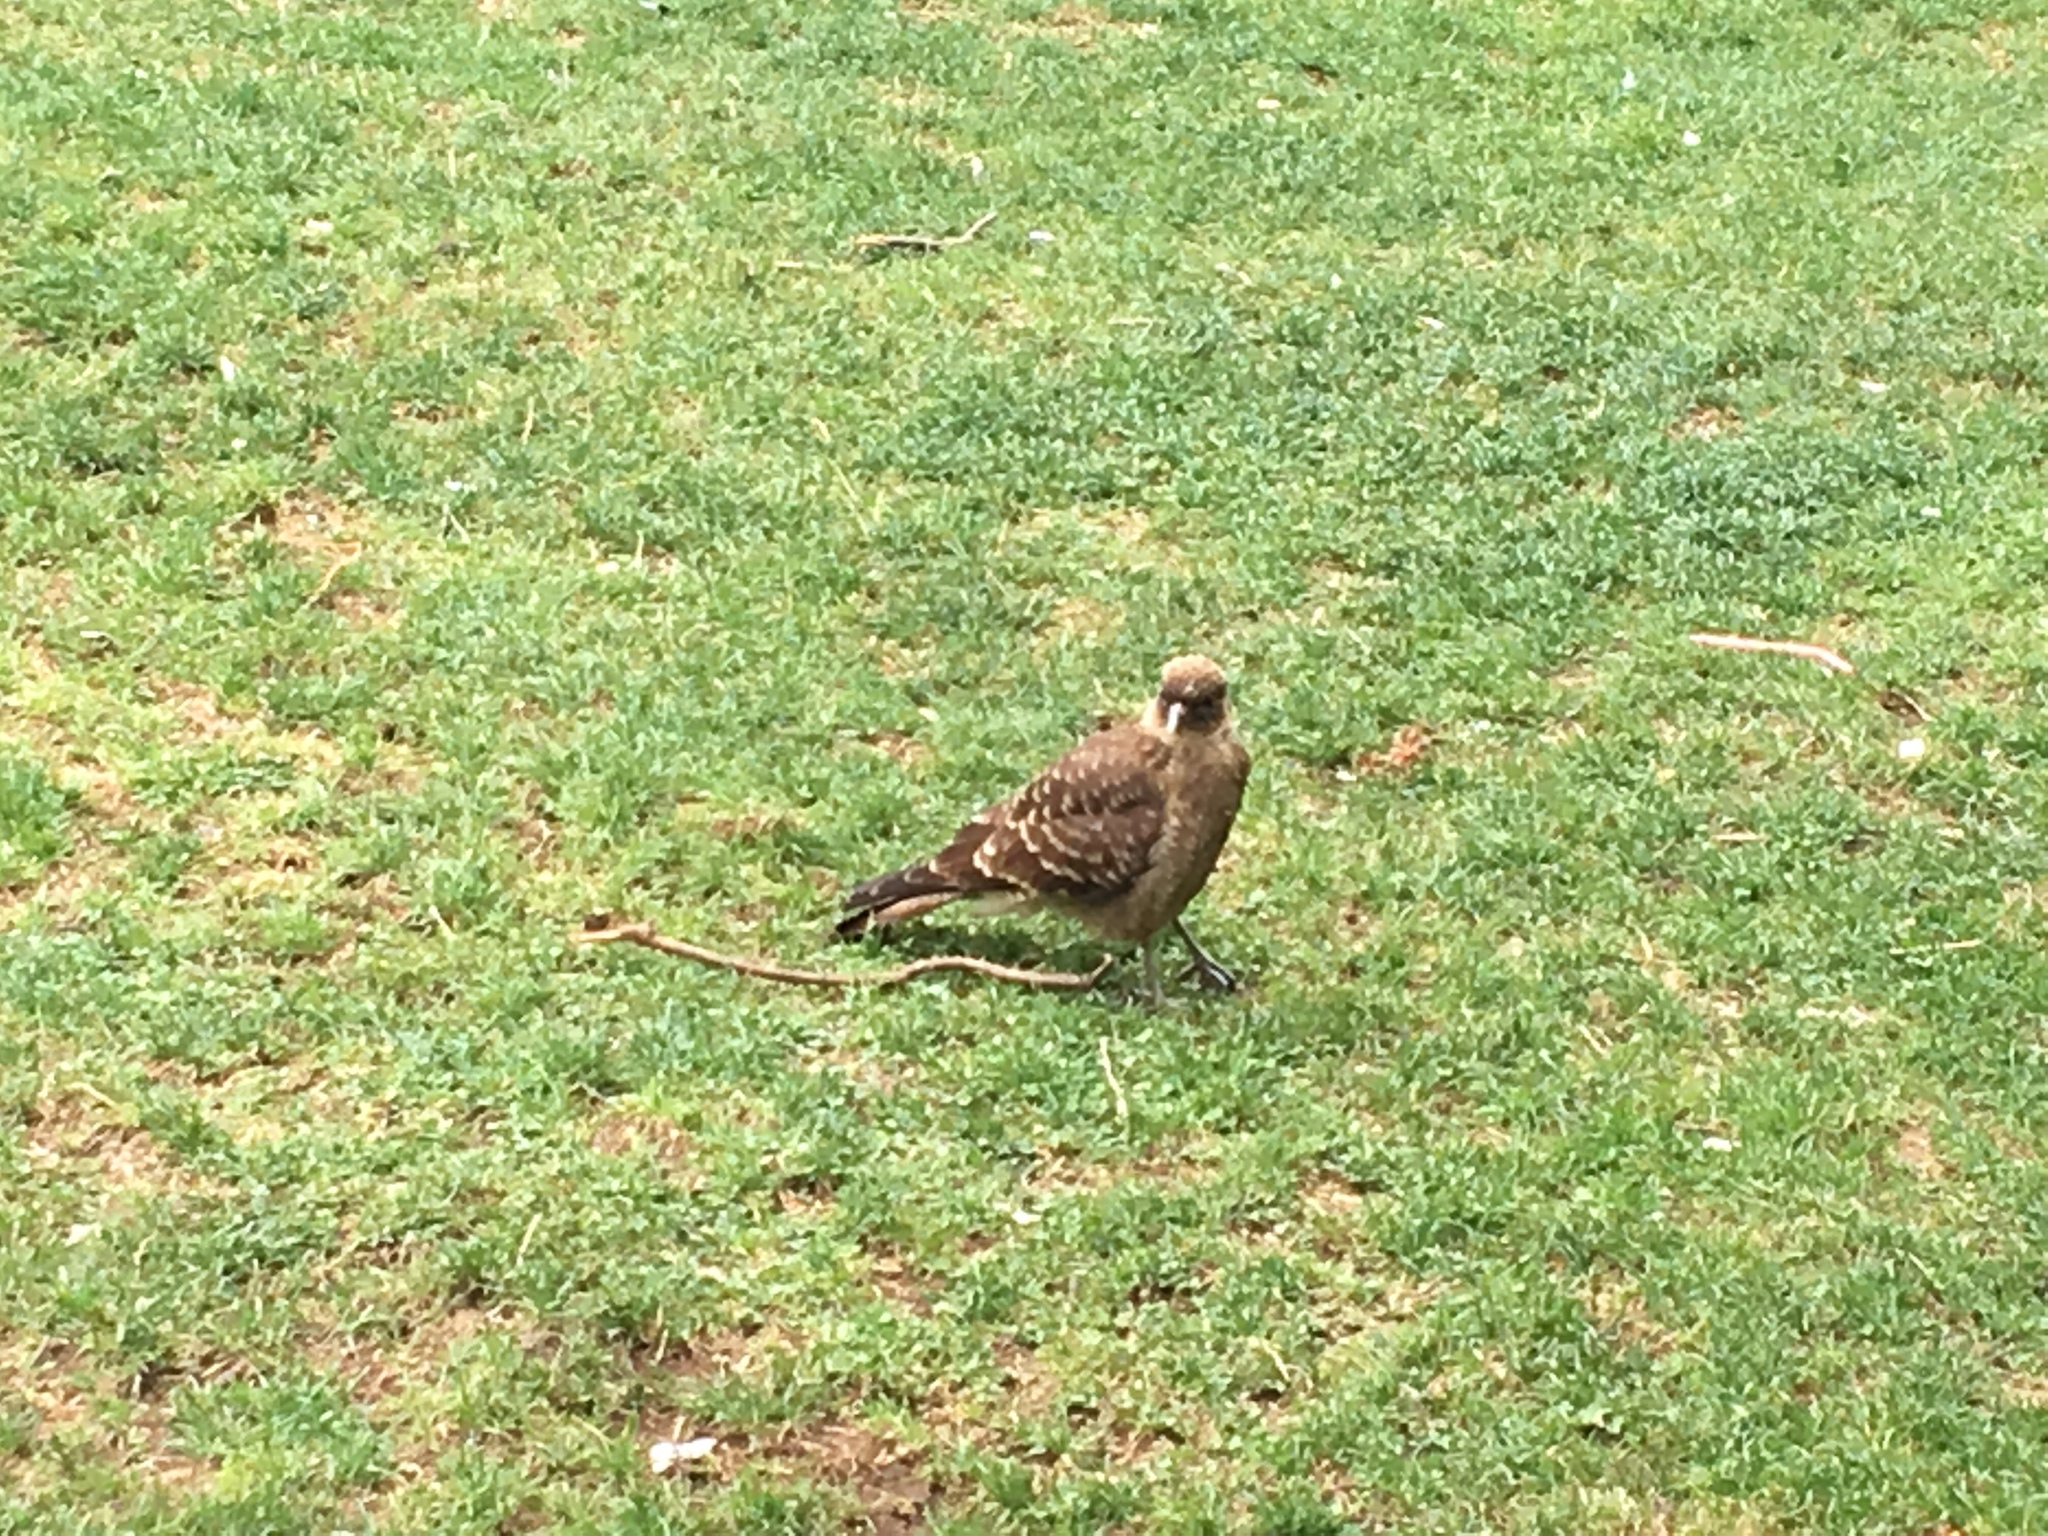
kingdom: Animalia
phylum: Chordata
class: Aves
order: Falconiformes
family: Falconidae
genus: Daptrius
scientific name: Daptrius
